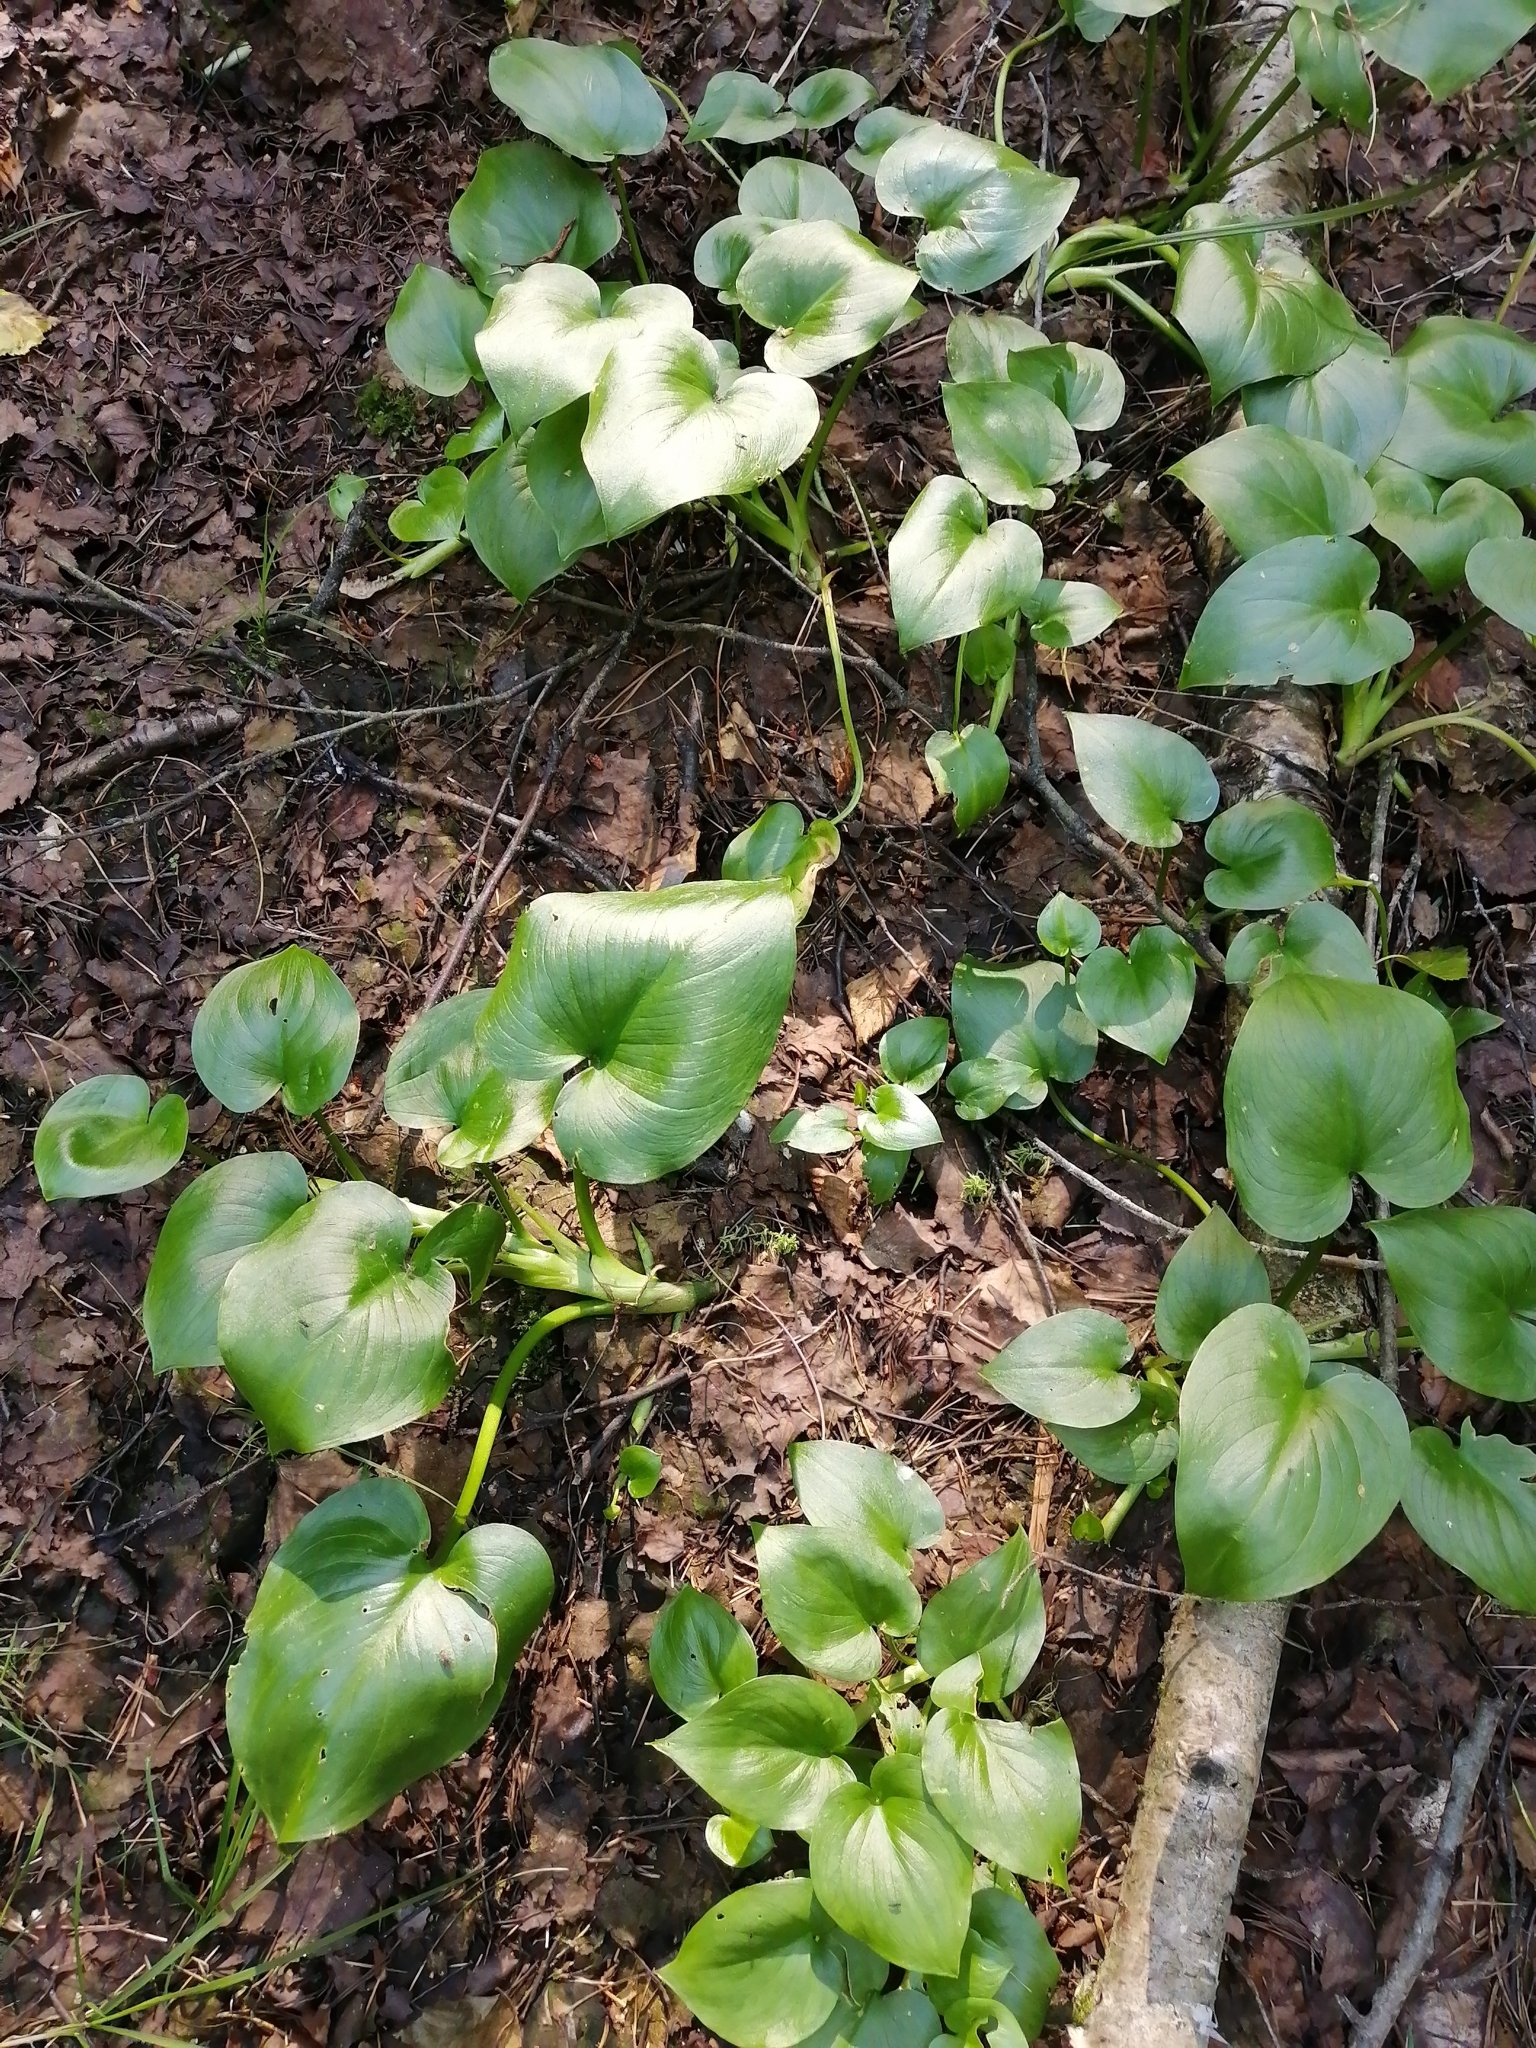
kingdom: Plantae
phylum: Tracheophyta
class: Liliopsida
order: Alismatales
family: Araceae
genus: Calla
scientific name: Calla palustris
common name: Bog arum
